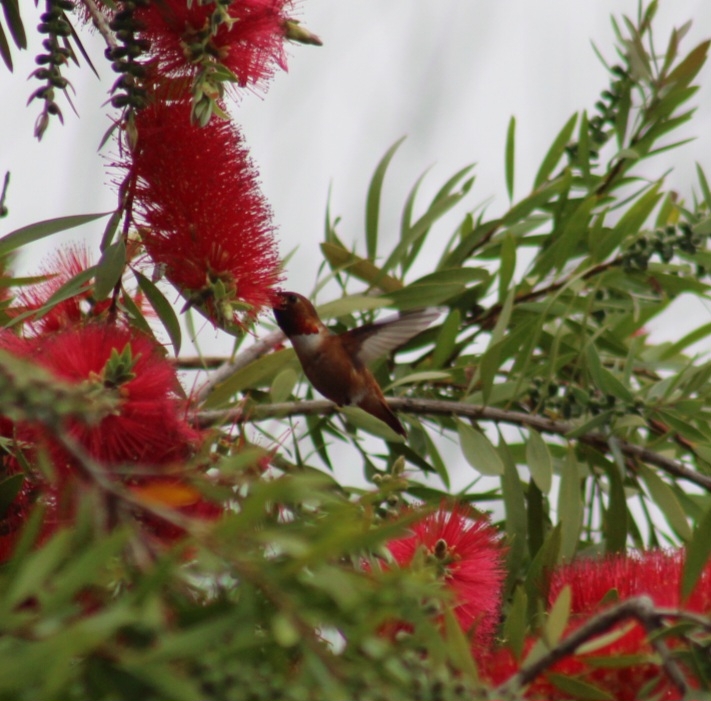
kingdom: Animalia
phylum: Chordata
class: Aves
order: Apodiformes
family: Trochilidae
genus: Selasphorus
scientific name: Selasphorus sasin
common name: Allen's hummingbird
